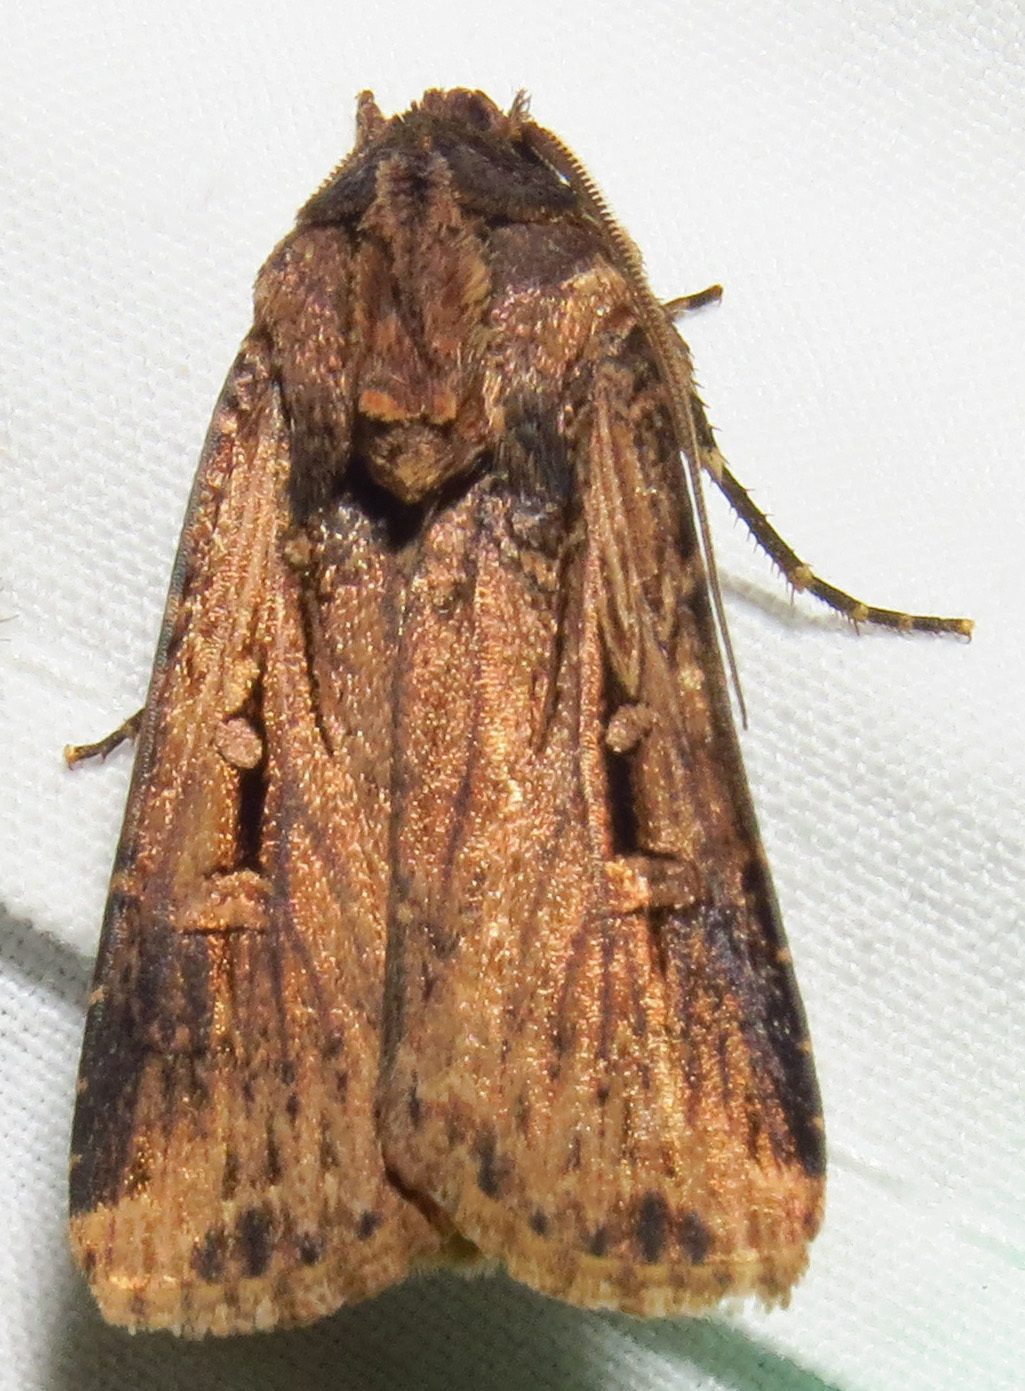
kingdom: Animalia
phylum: Arthropoda
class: Insecta
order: Lepidoptera
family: Noctuidae
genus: Feltia
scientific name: Feltia subterranea
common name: Granulate cutworm
